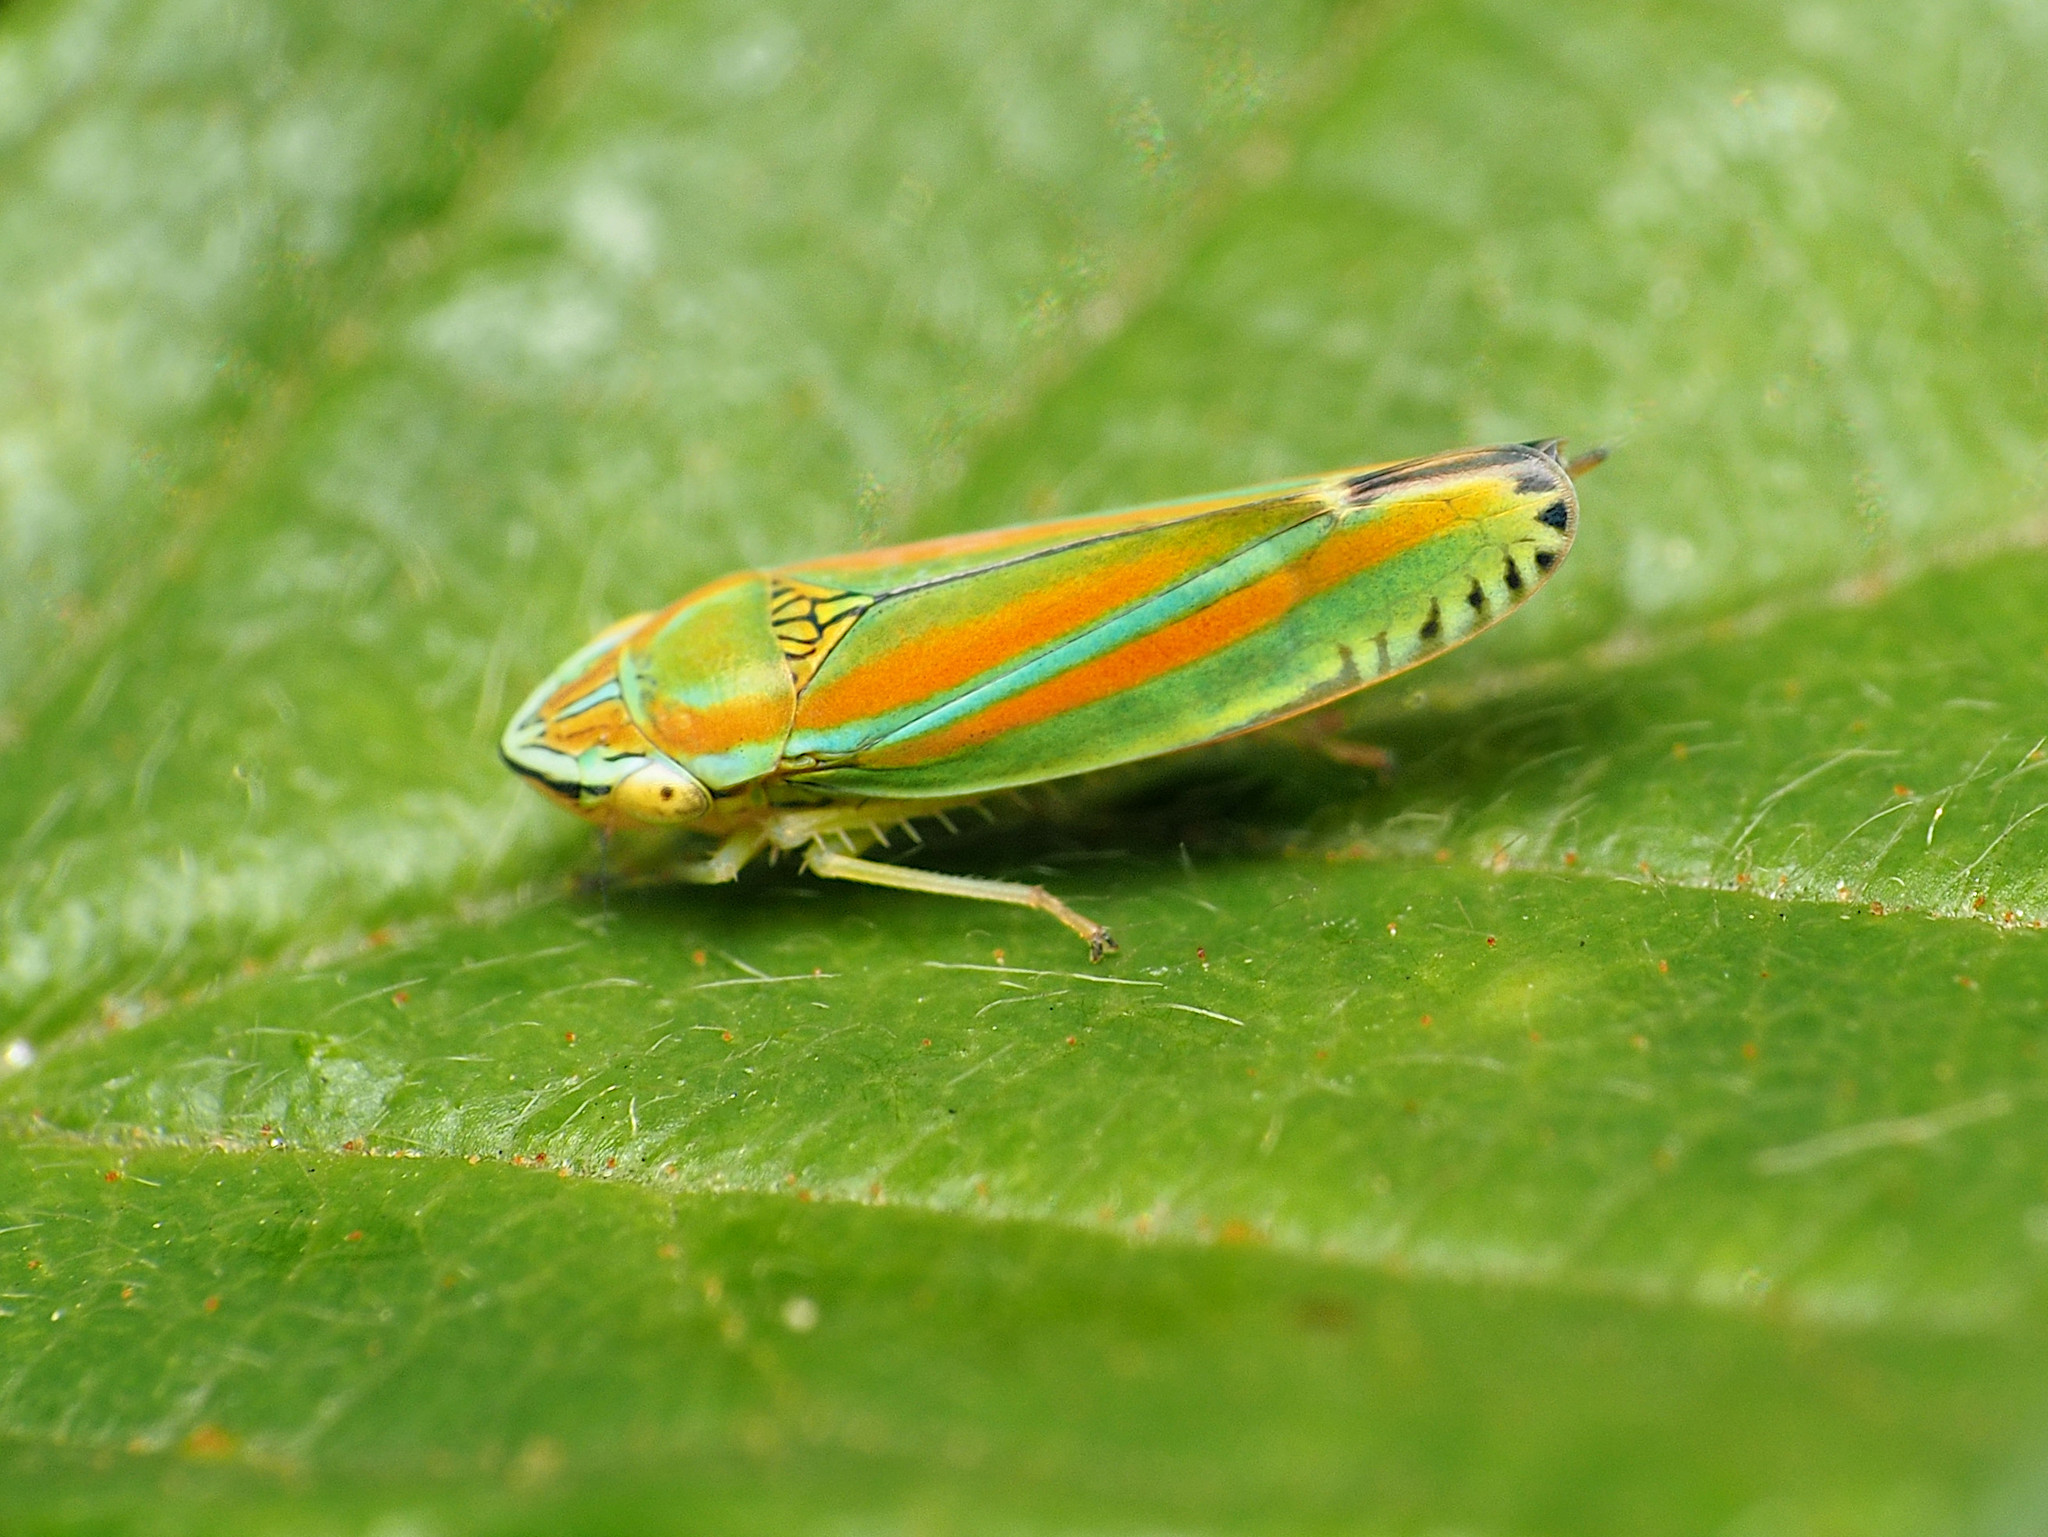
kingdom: Animalia
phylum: Arthropoda
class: Insecta
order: Hemiptera
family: Cicadellidae
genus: Graphocephala
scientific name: Graphocephala versuta
